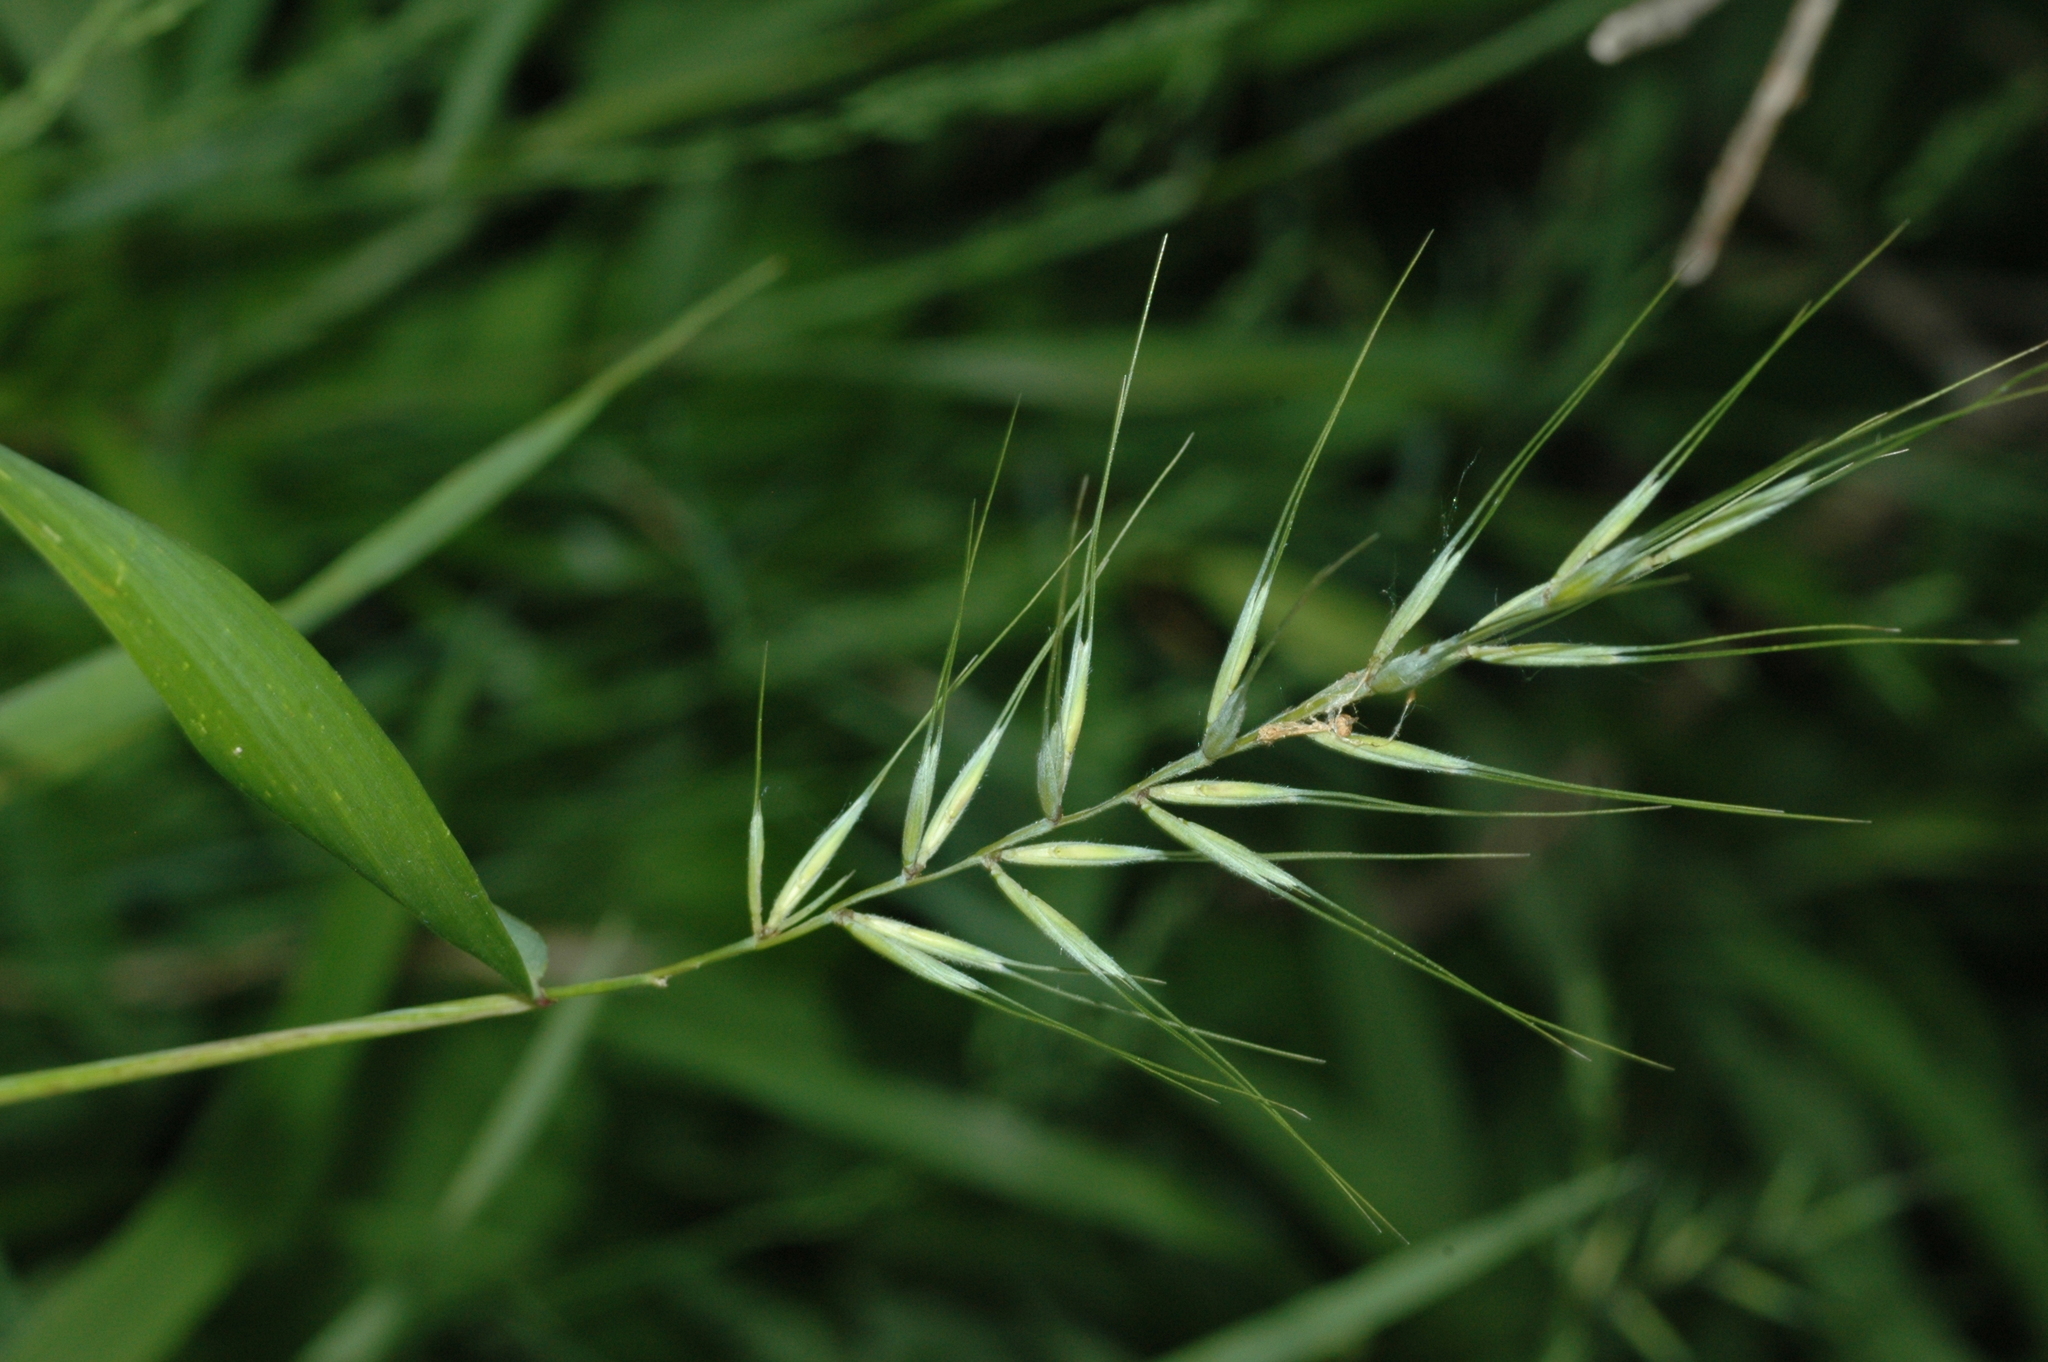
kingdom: Plantae
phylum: Tracheophyta
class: Liliopsida
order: Poales
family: Poaceae
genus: Elymus
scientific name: Elymus hystrix
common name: Bottlebrush grass
